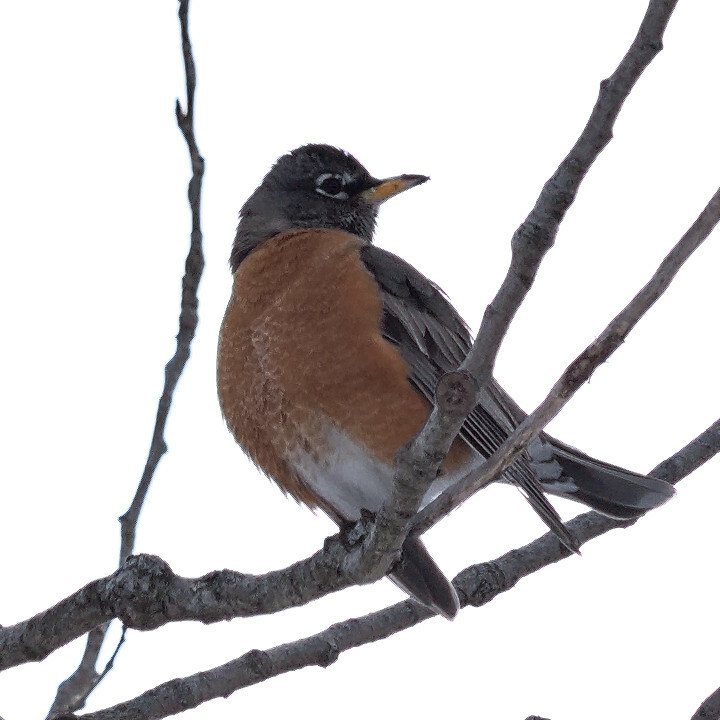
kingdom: Animalia
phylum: Chordata
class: Aves
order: Passeriformes
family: Turdidae
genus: Turdus
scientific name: Turdus migratorius
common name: American robin
